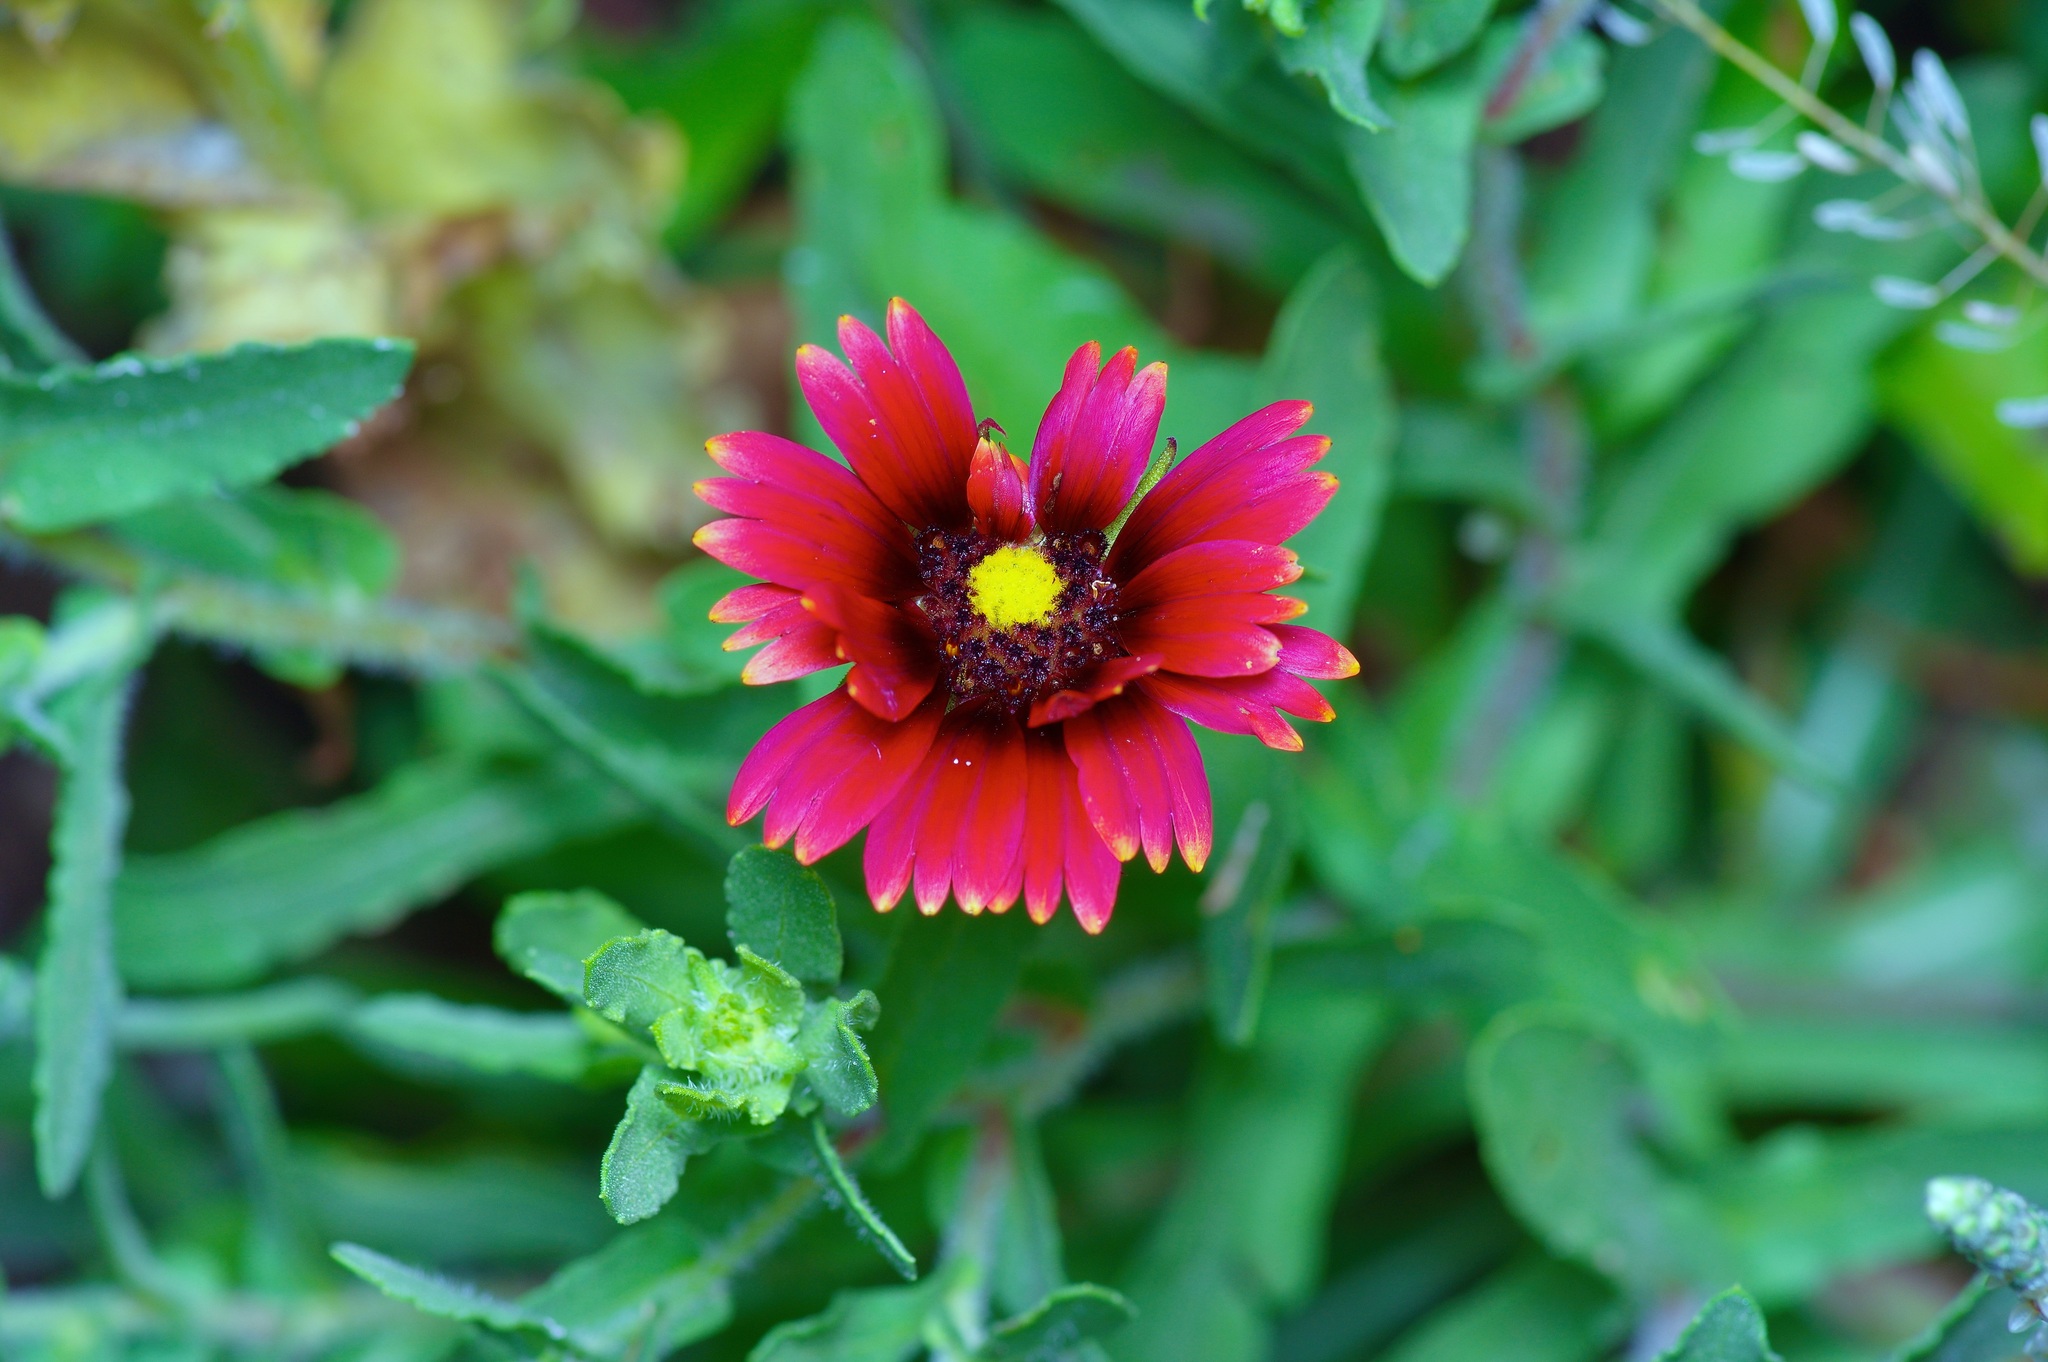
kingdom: Plantae
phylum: Tracheophyta
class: Magnoliopsida
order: Asterales
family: Asteraceae
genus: Gaillardia
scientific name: Gaillardia amblyodon
